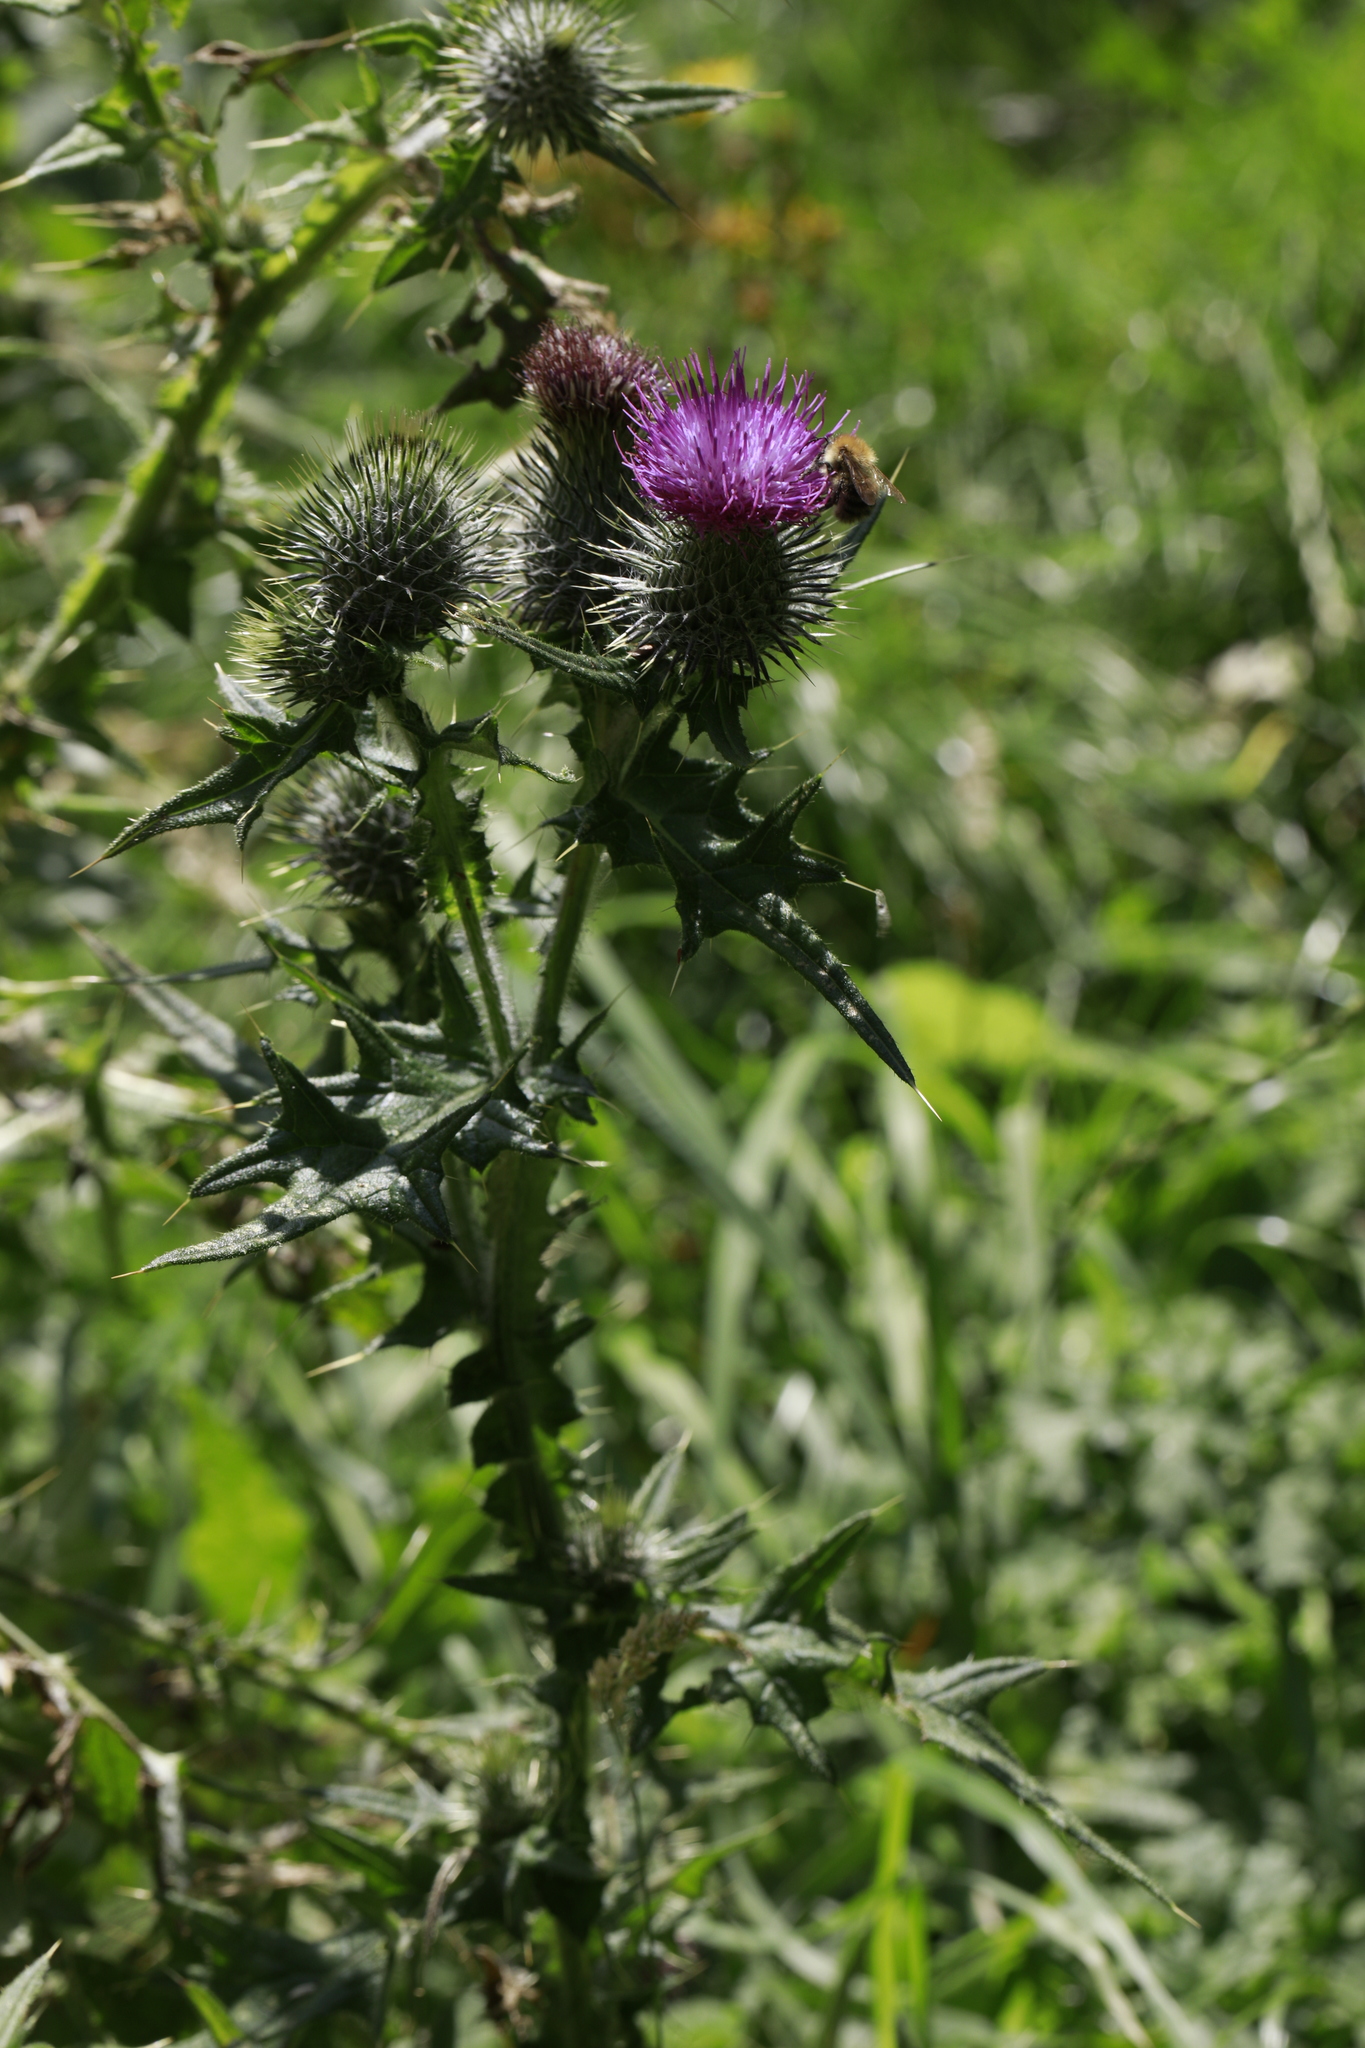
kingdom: Plantae
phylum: Tracheophyta
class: Magnoliopsida
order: Asterales
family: Asteraceae
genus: Cirsium
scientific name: Cirsium vulgare
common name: Bull thistle
